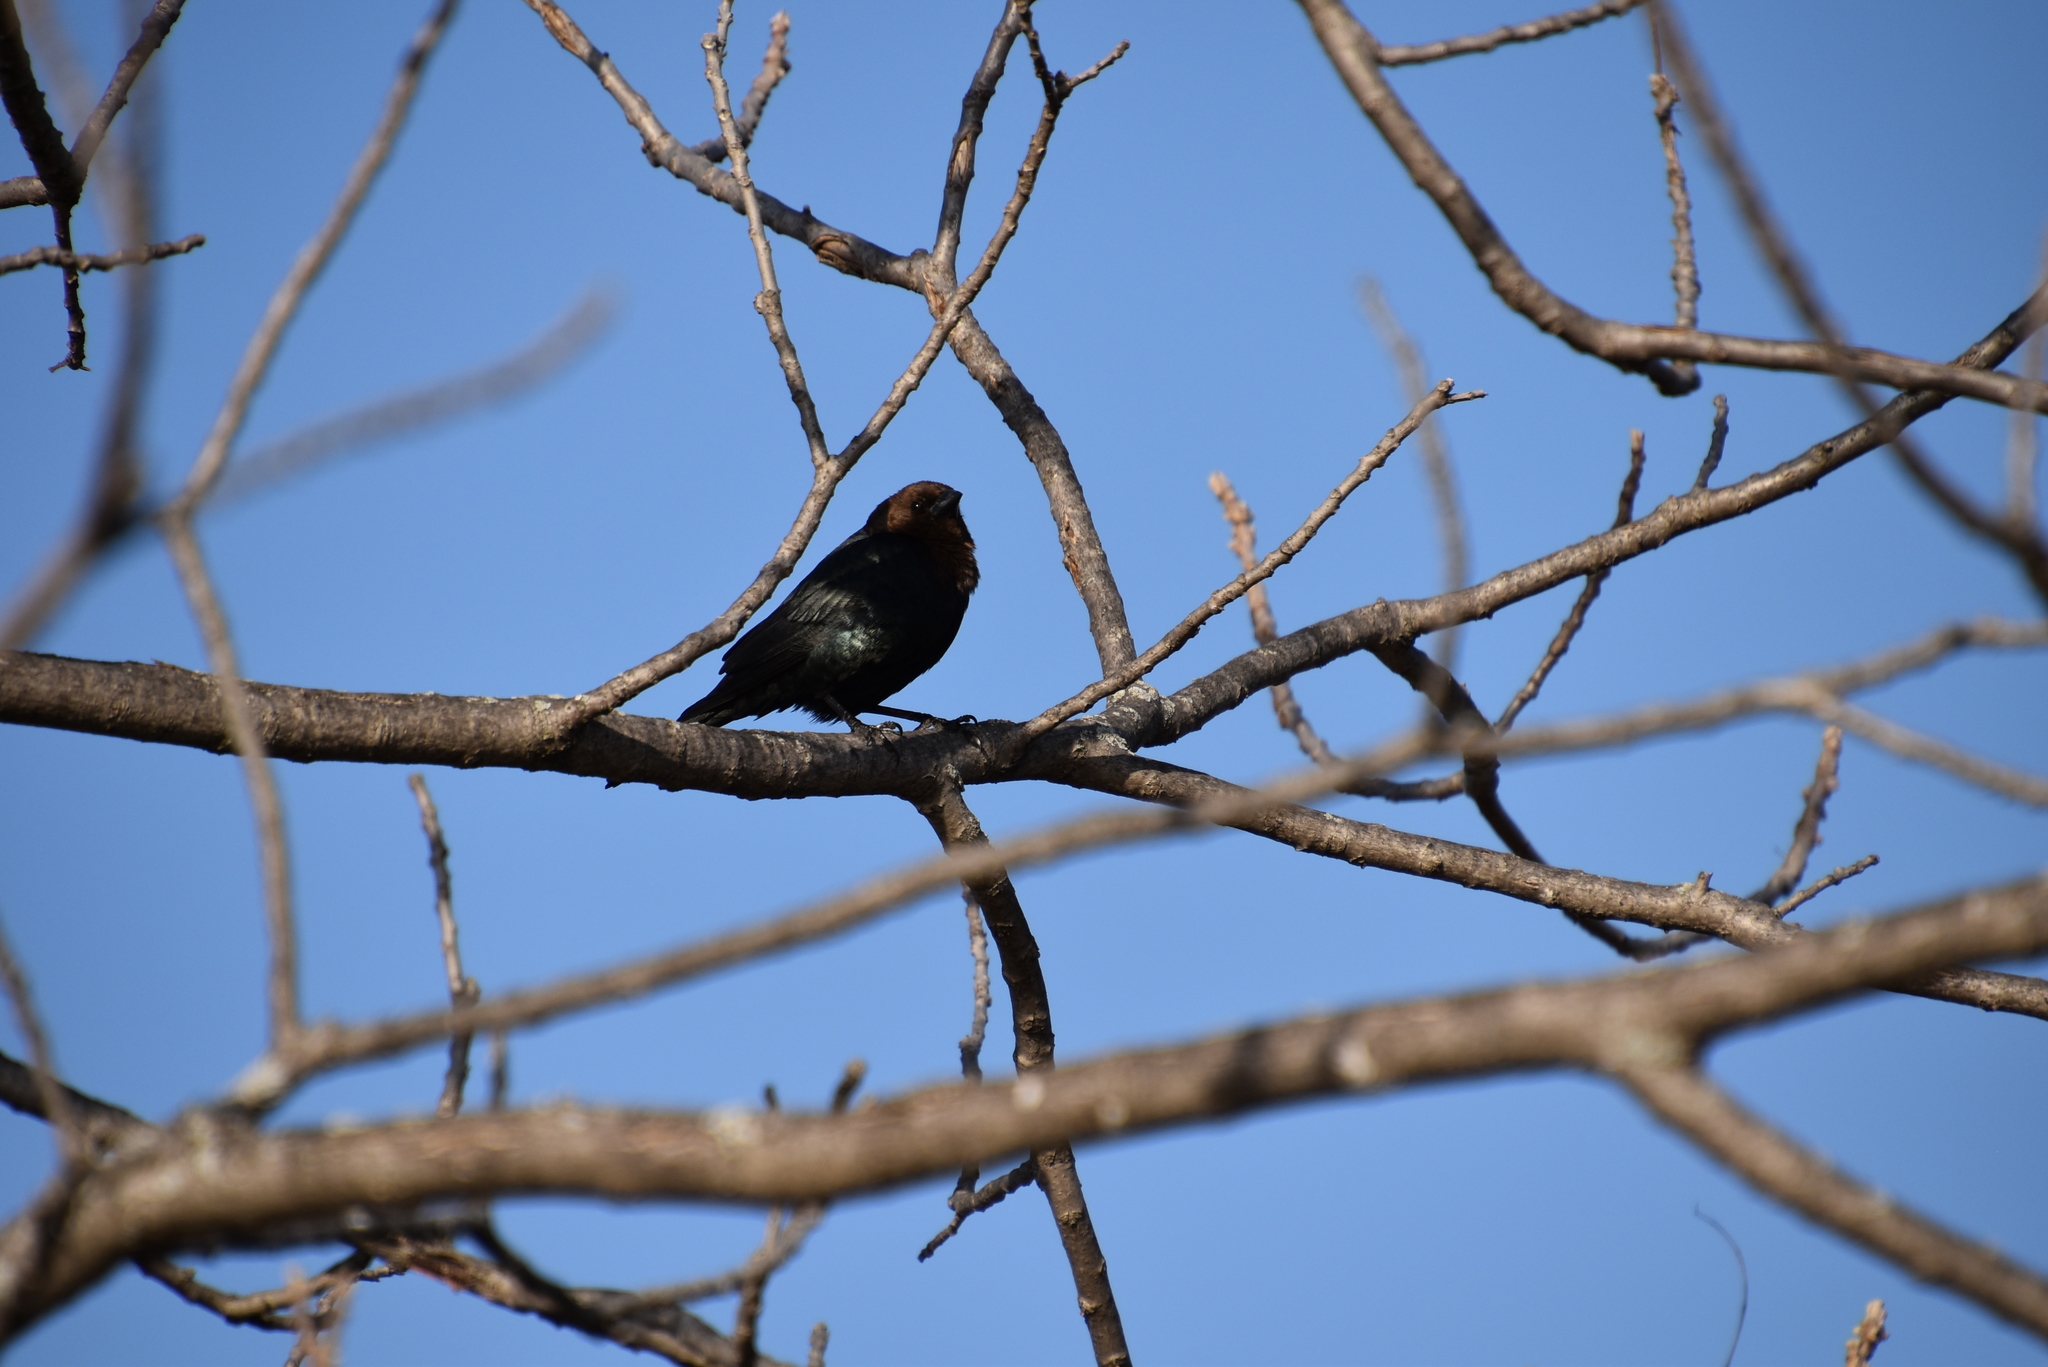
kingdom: Animalia
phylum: Chordata
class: Aves
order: Passeriformes
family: Icteridae
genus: Molothrus
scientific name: Molothrus ater
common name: Brown-headed cowbird
